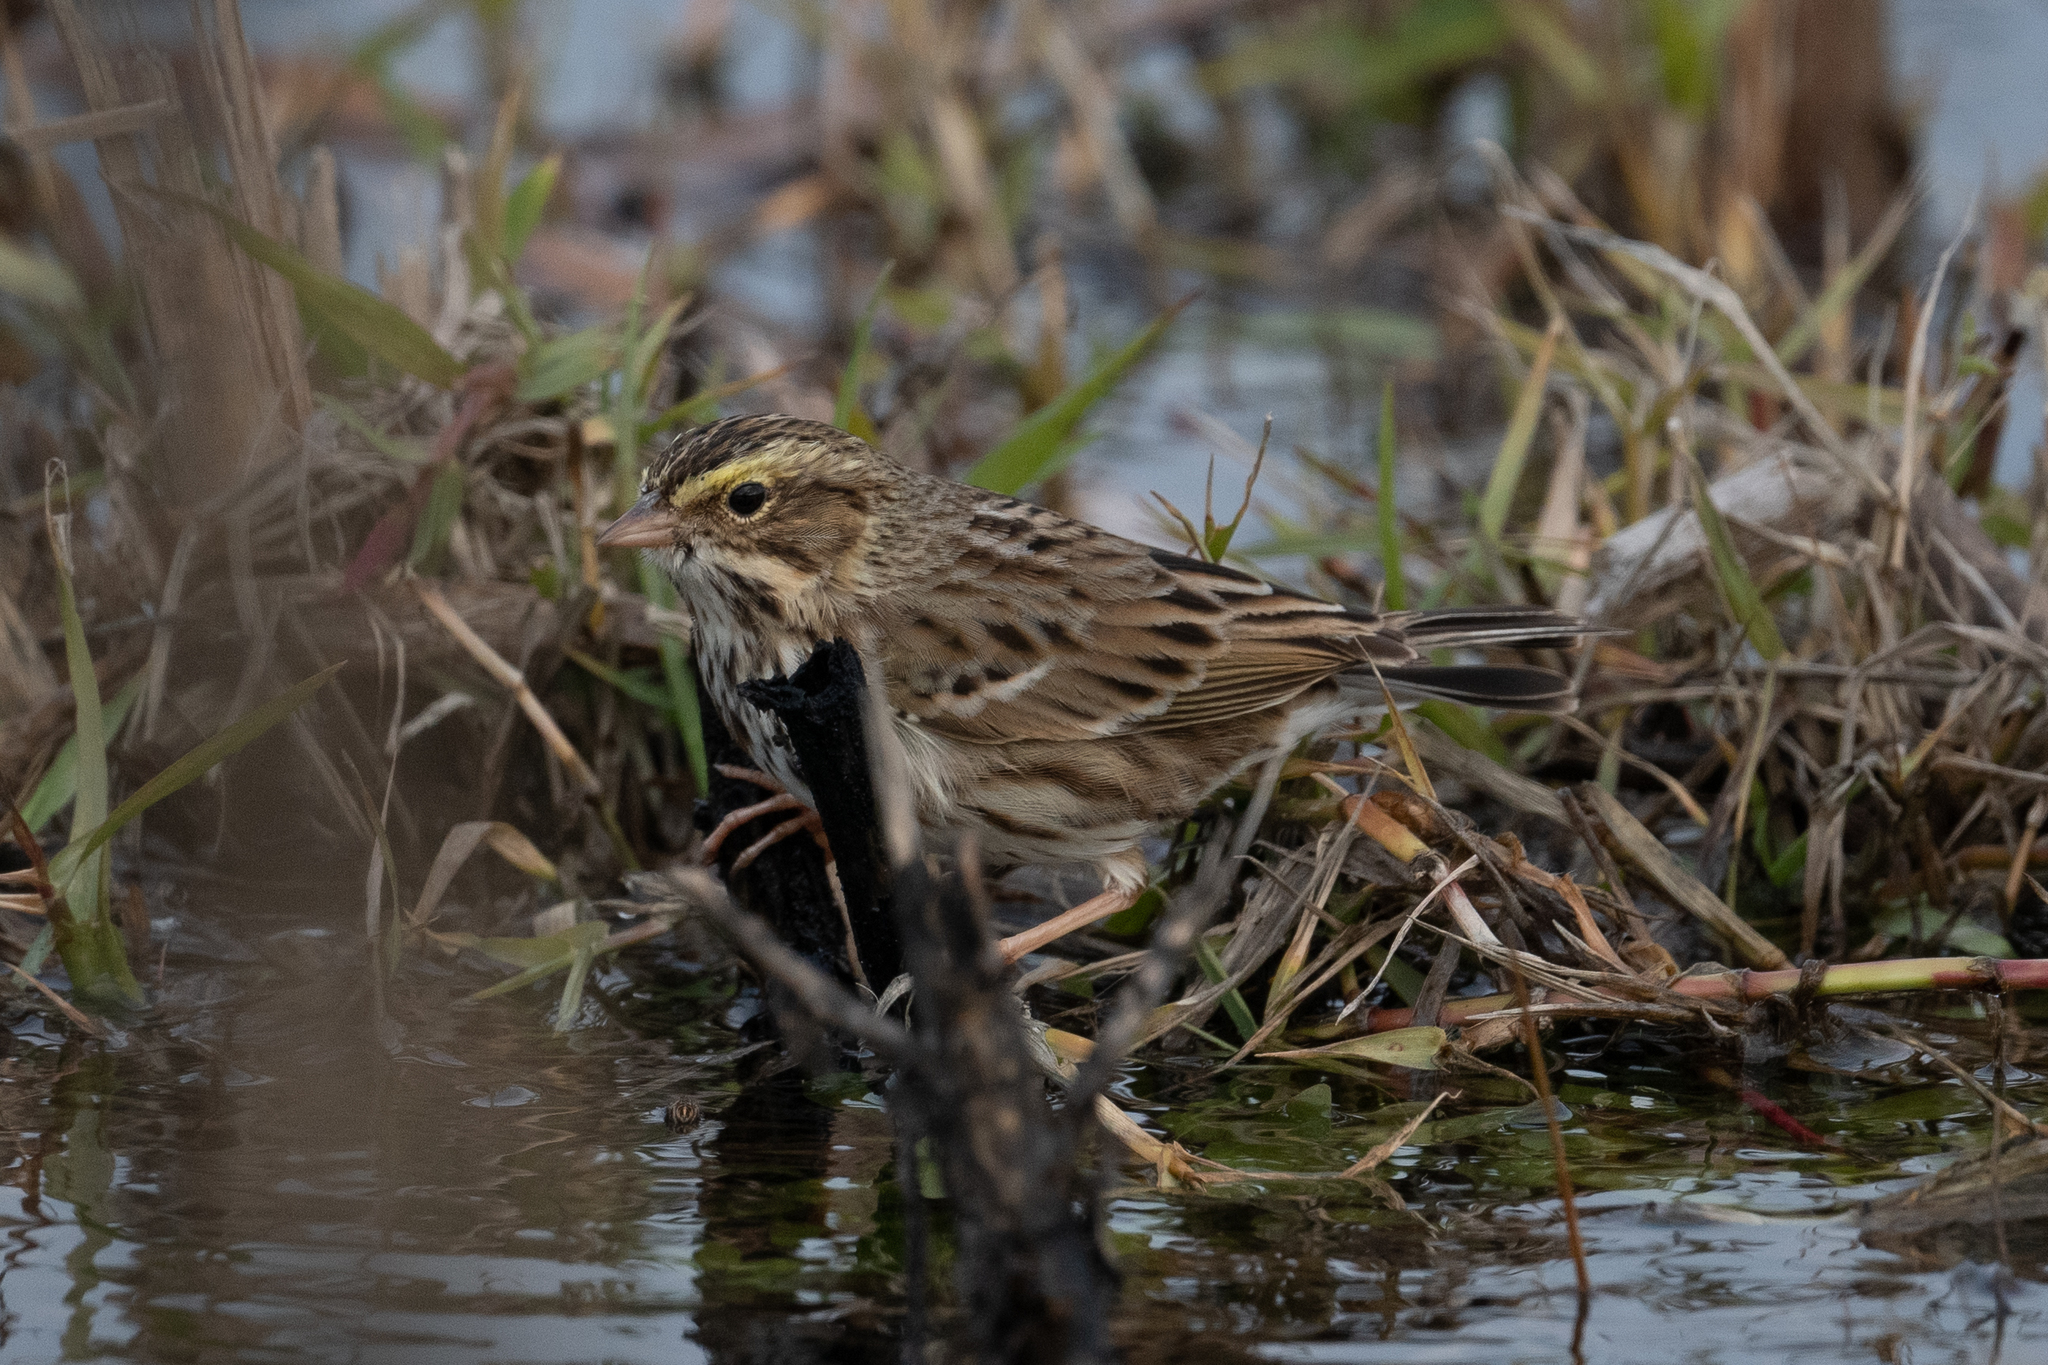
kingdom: Animalia
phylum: Chordata
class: Aves
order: Passeriformes
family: Passerellidae
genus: Passerculus
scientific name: Passerculus sandwichensis
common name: Savannah sparrow
